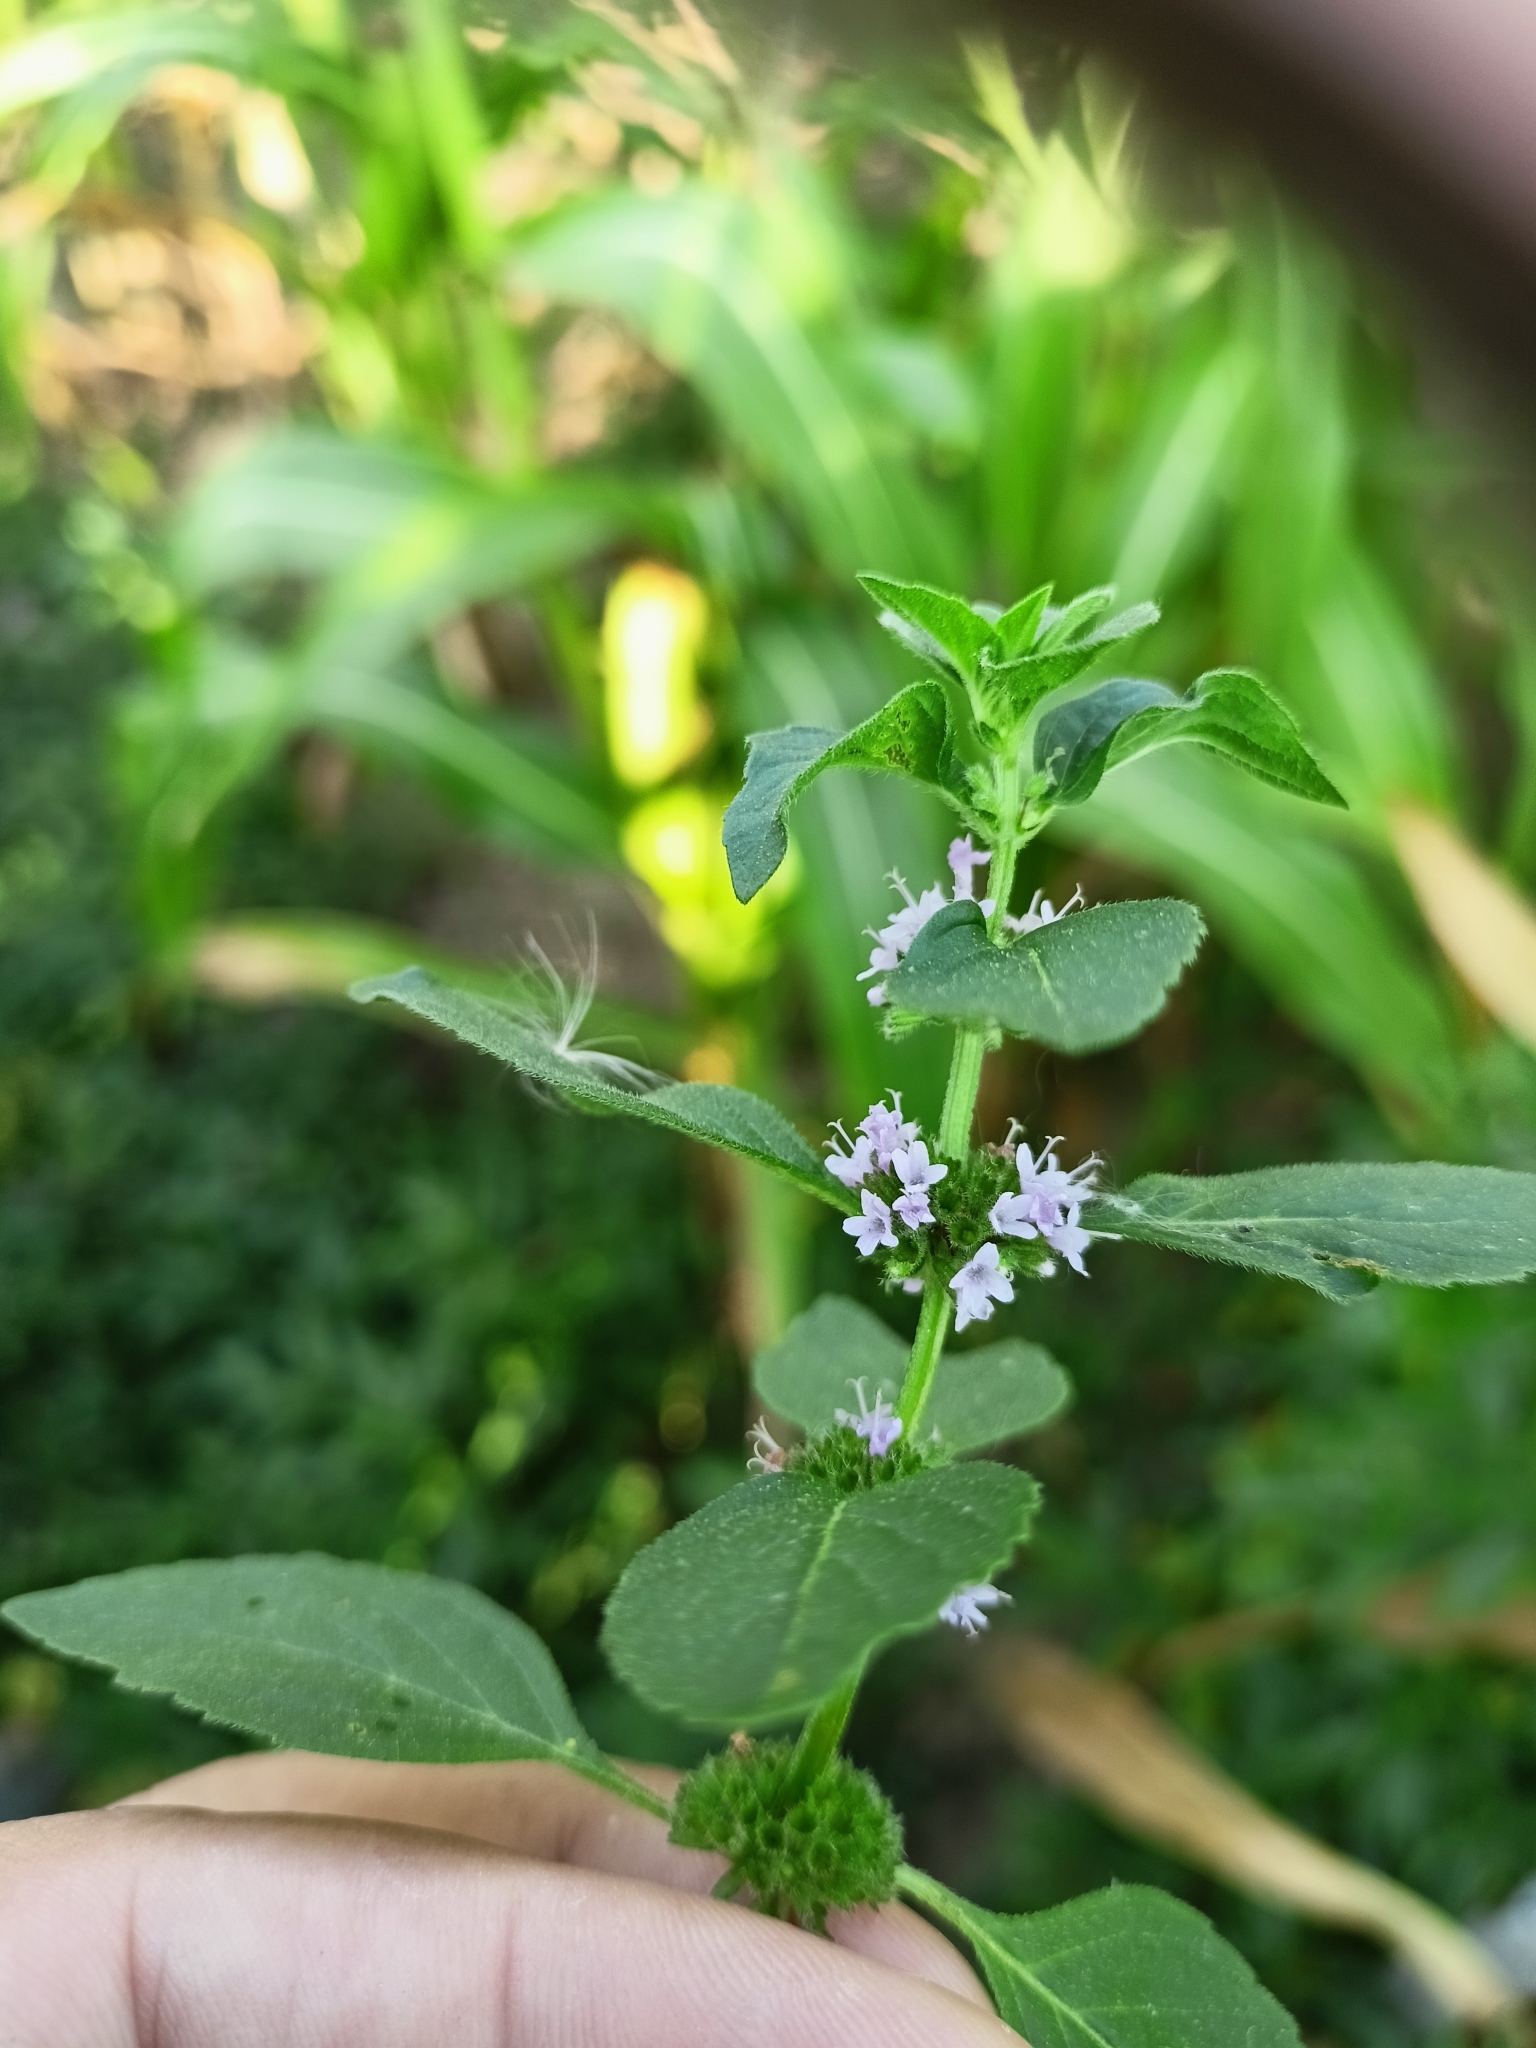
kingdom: Plantae
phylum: Tracheophyta
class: Magnoliopsida
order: Lamiales
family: Lamiaceae
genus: Mentha
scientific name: Mentha arvensis
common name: Corn mint
